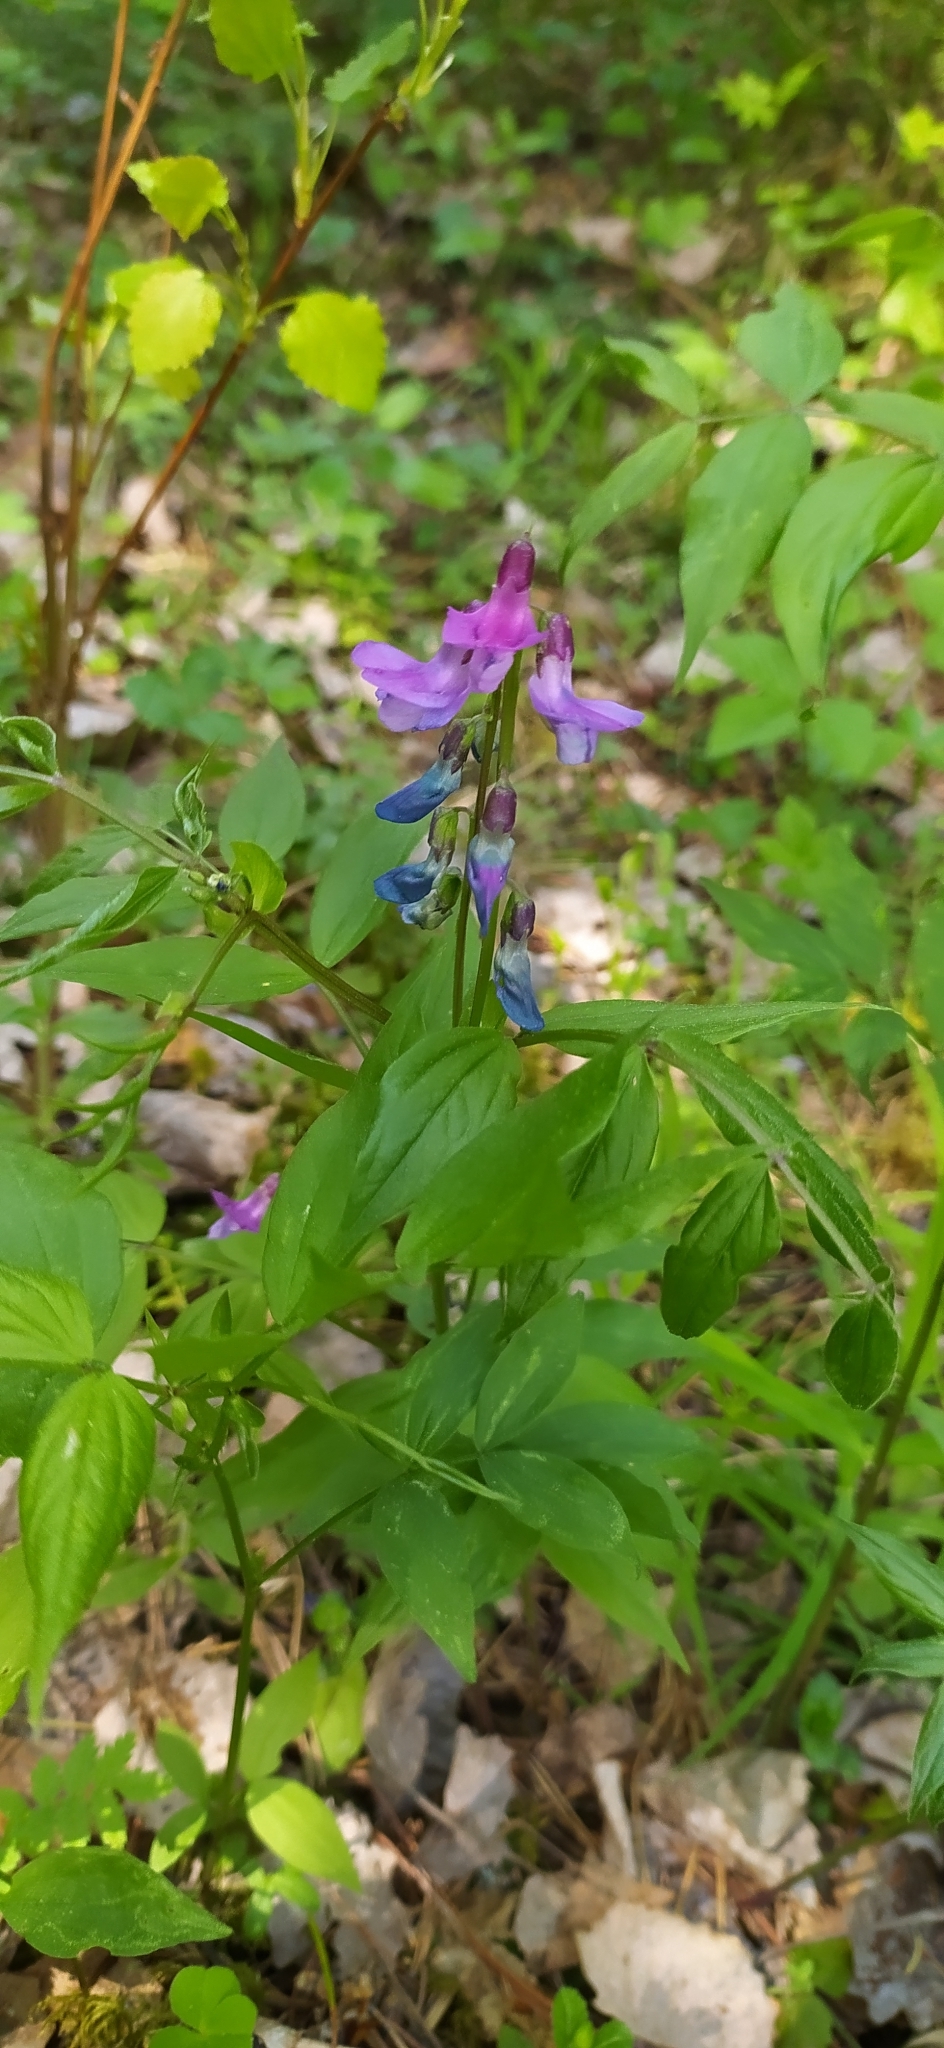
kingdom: Plantae
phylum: Tracheophyta
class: Magnoliopsida
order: Fabales
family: Fabaceae
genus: Lathyrus
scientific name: Lathyrus vernus
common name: Spring pea
